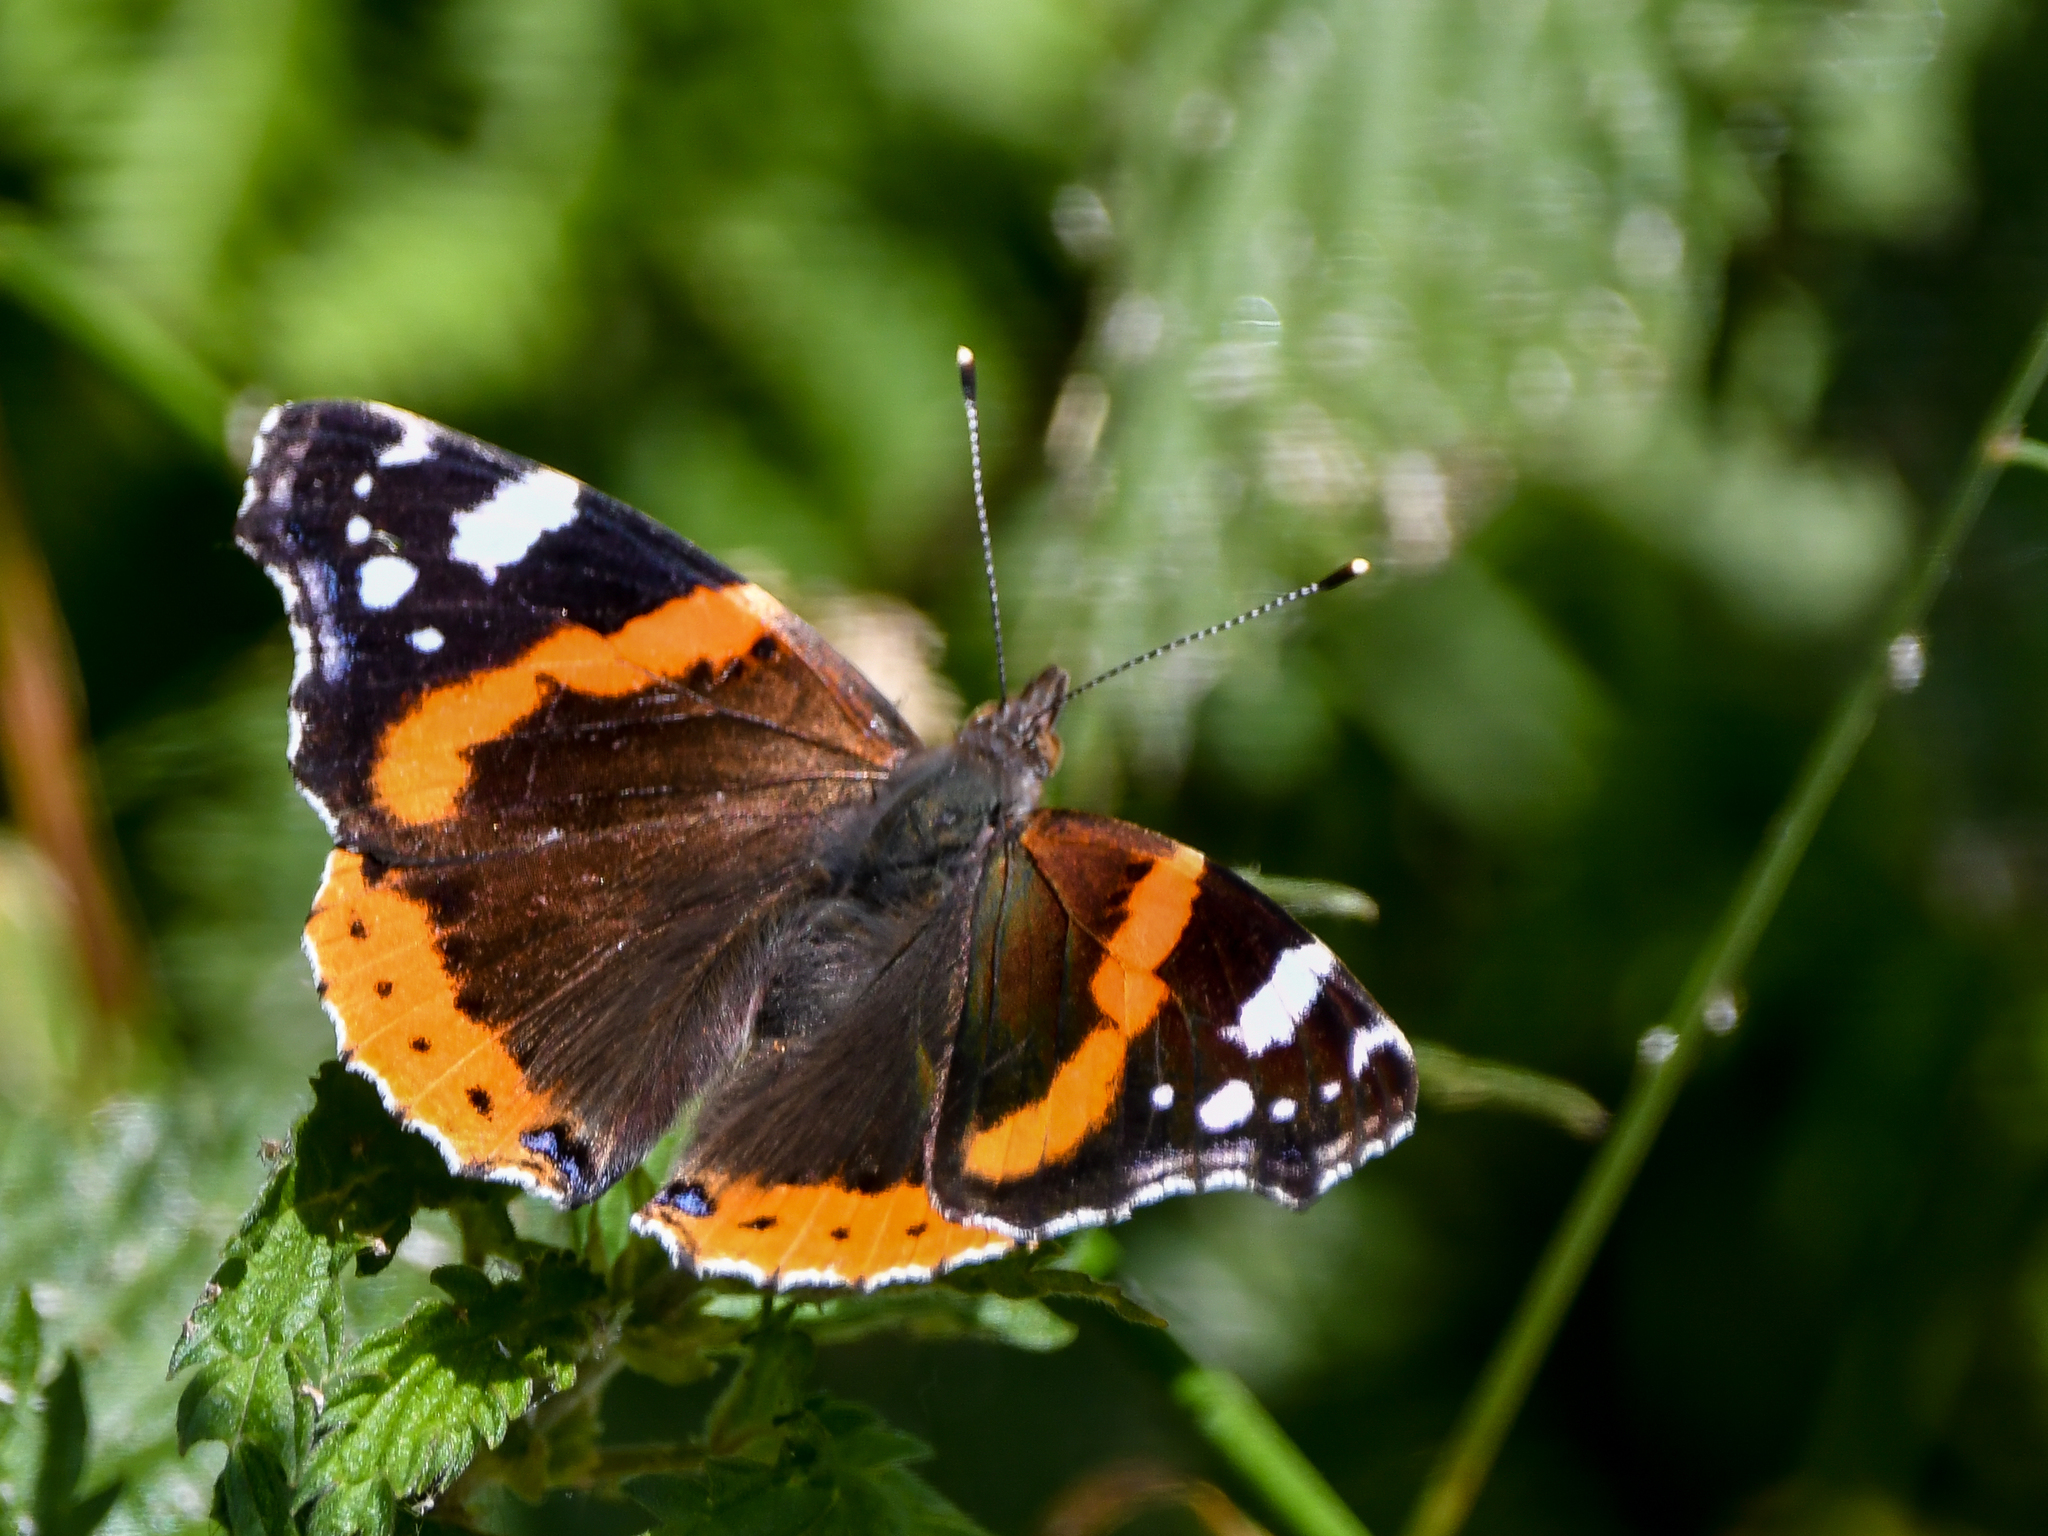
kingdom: Animalia
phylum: Arthropoda
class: Insecta
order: Lepidoptera
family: Nymphalidae
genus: Vanessa
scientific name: Vanessa atalanta
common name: Red admiral
